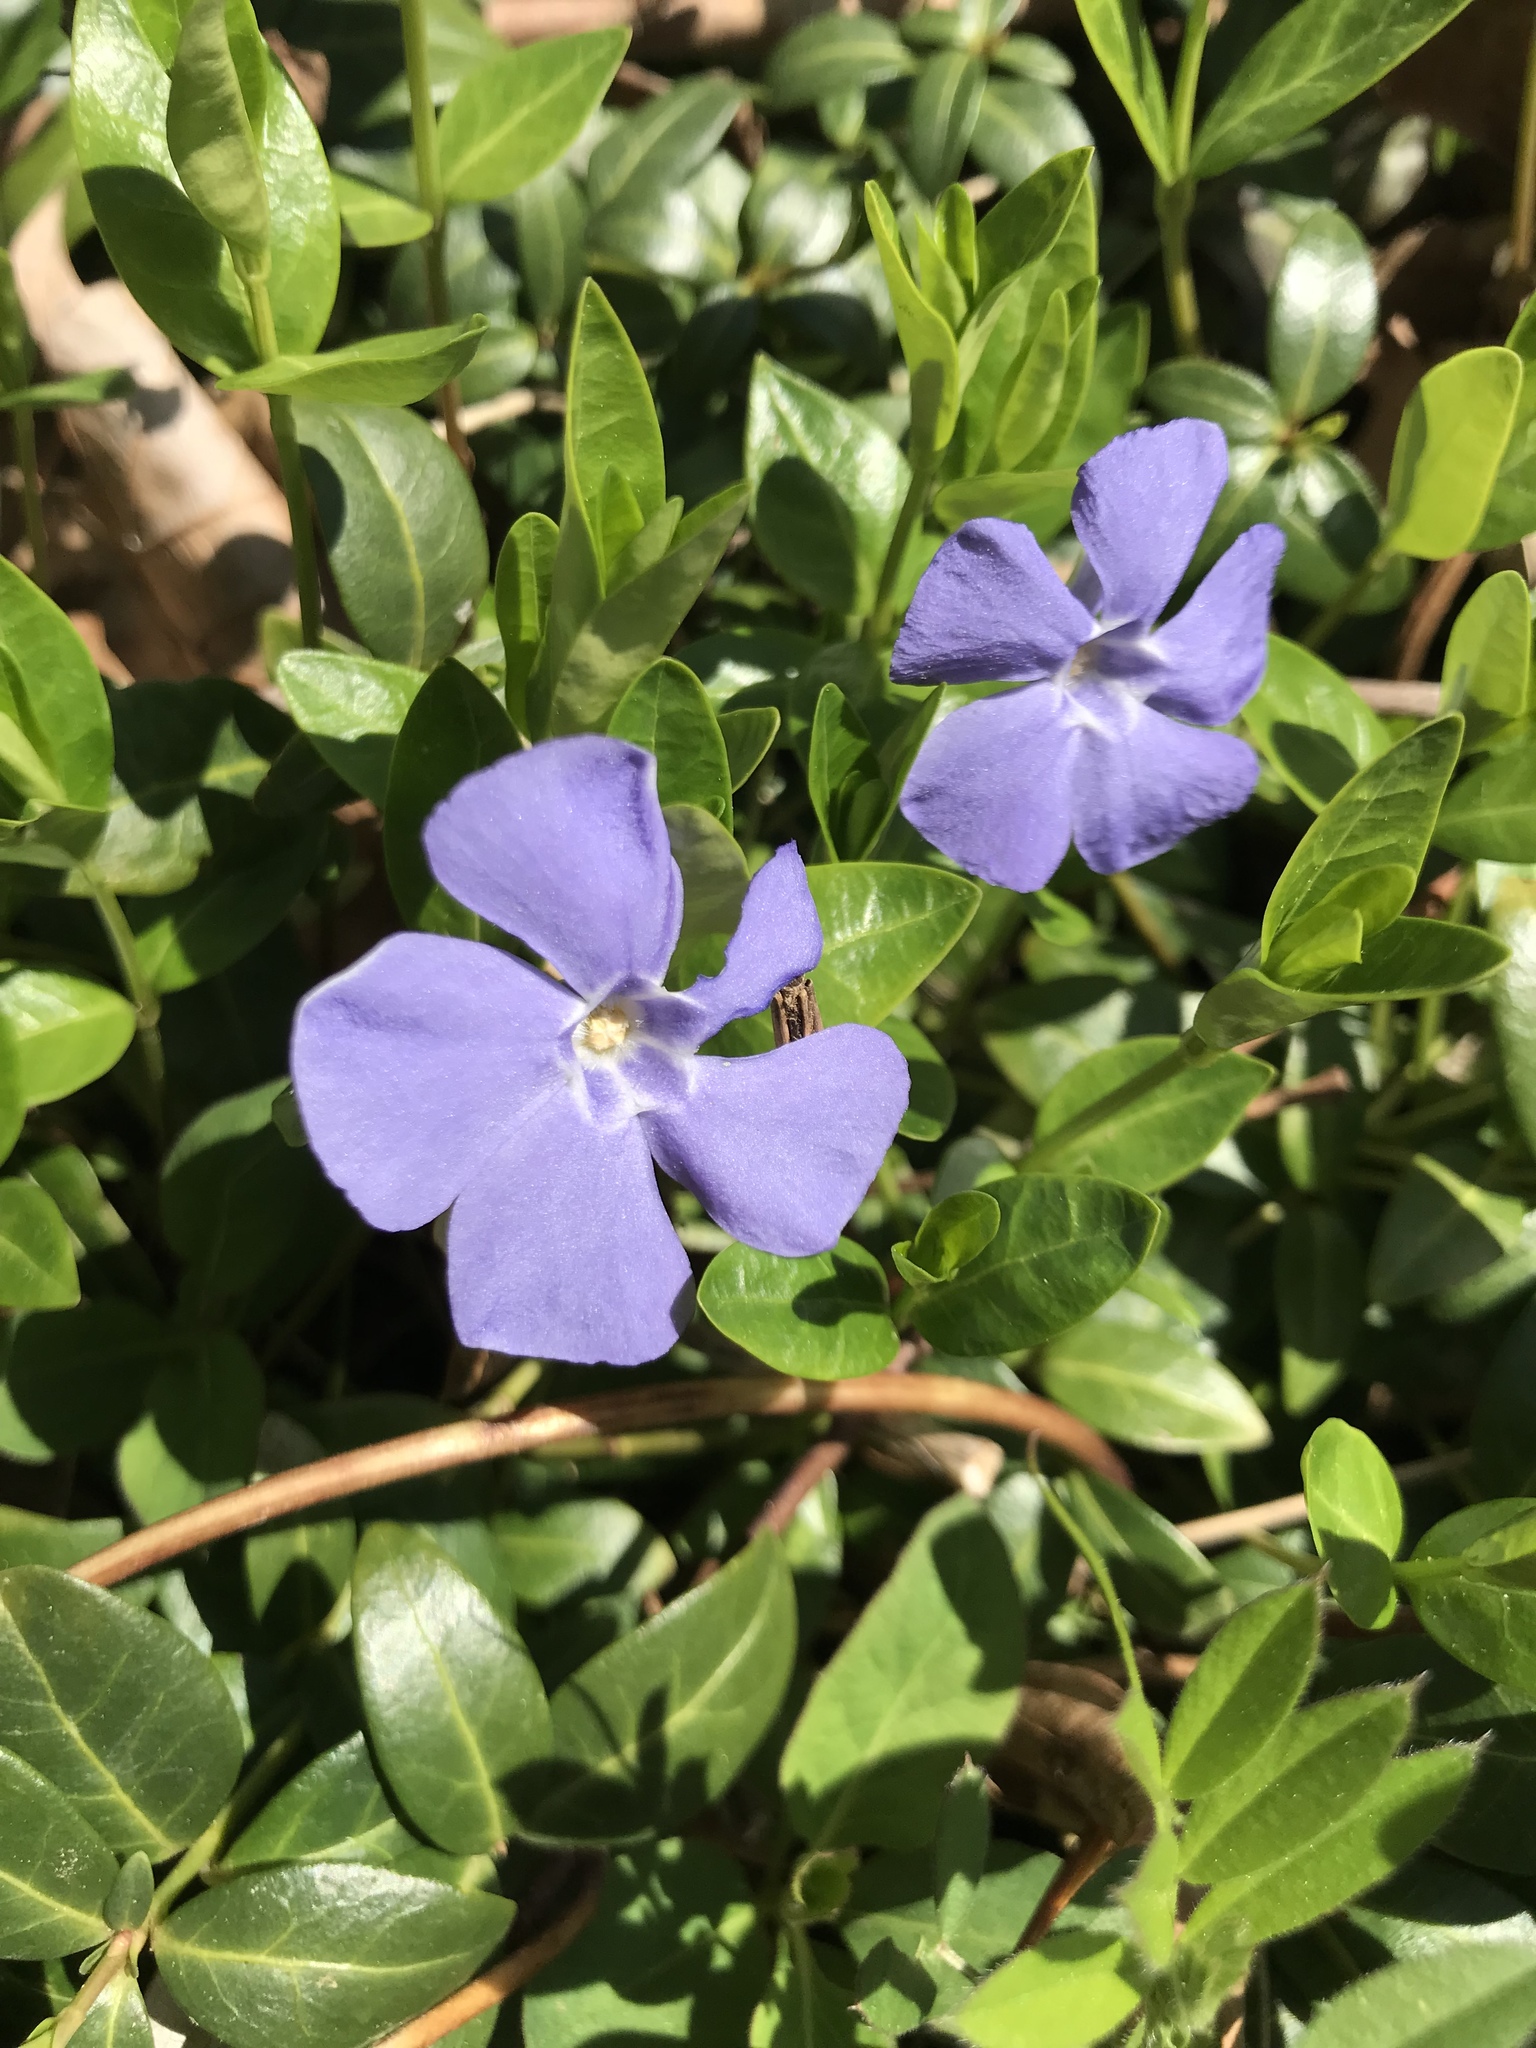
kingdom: Plantae
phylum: Tracheophyta
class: Magnoliopsida
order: Gentianales
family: Apocynaceae
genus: Vinca
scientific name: Vinca minor
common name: Lesser periwinkle
